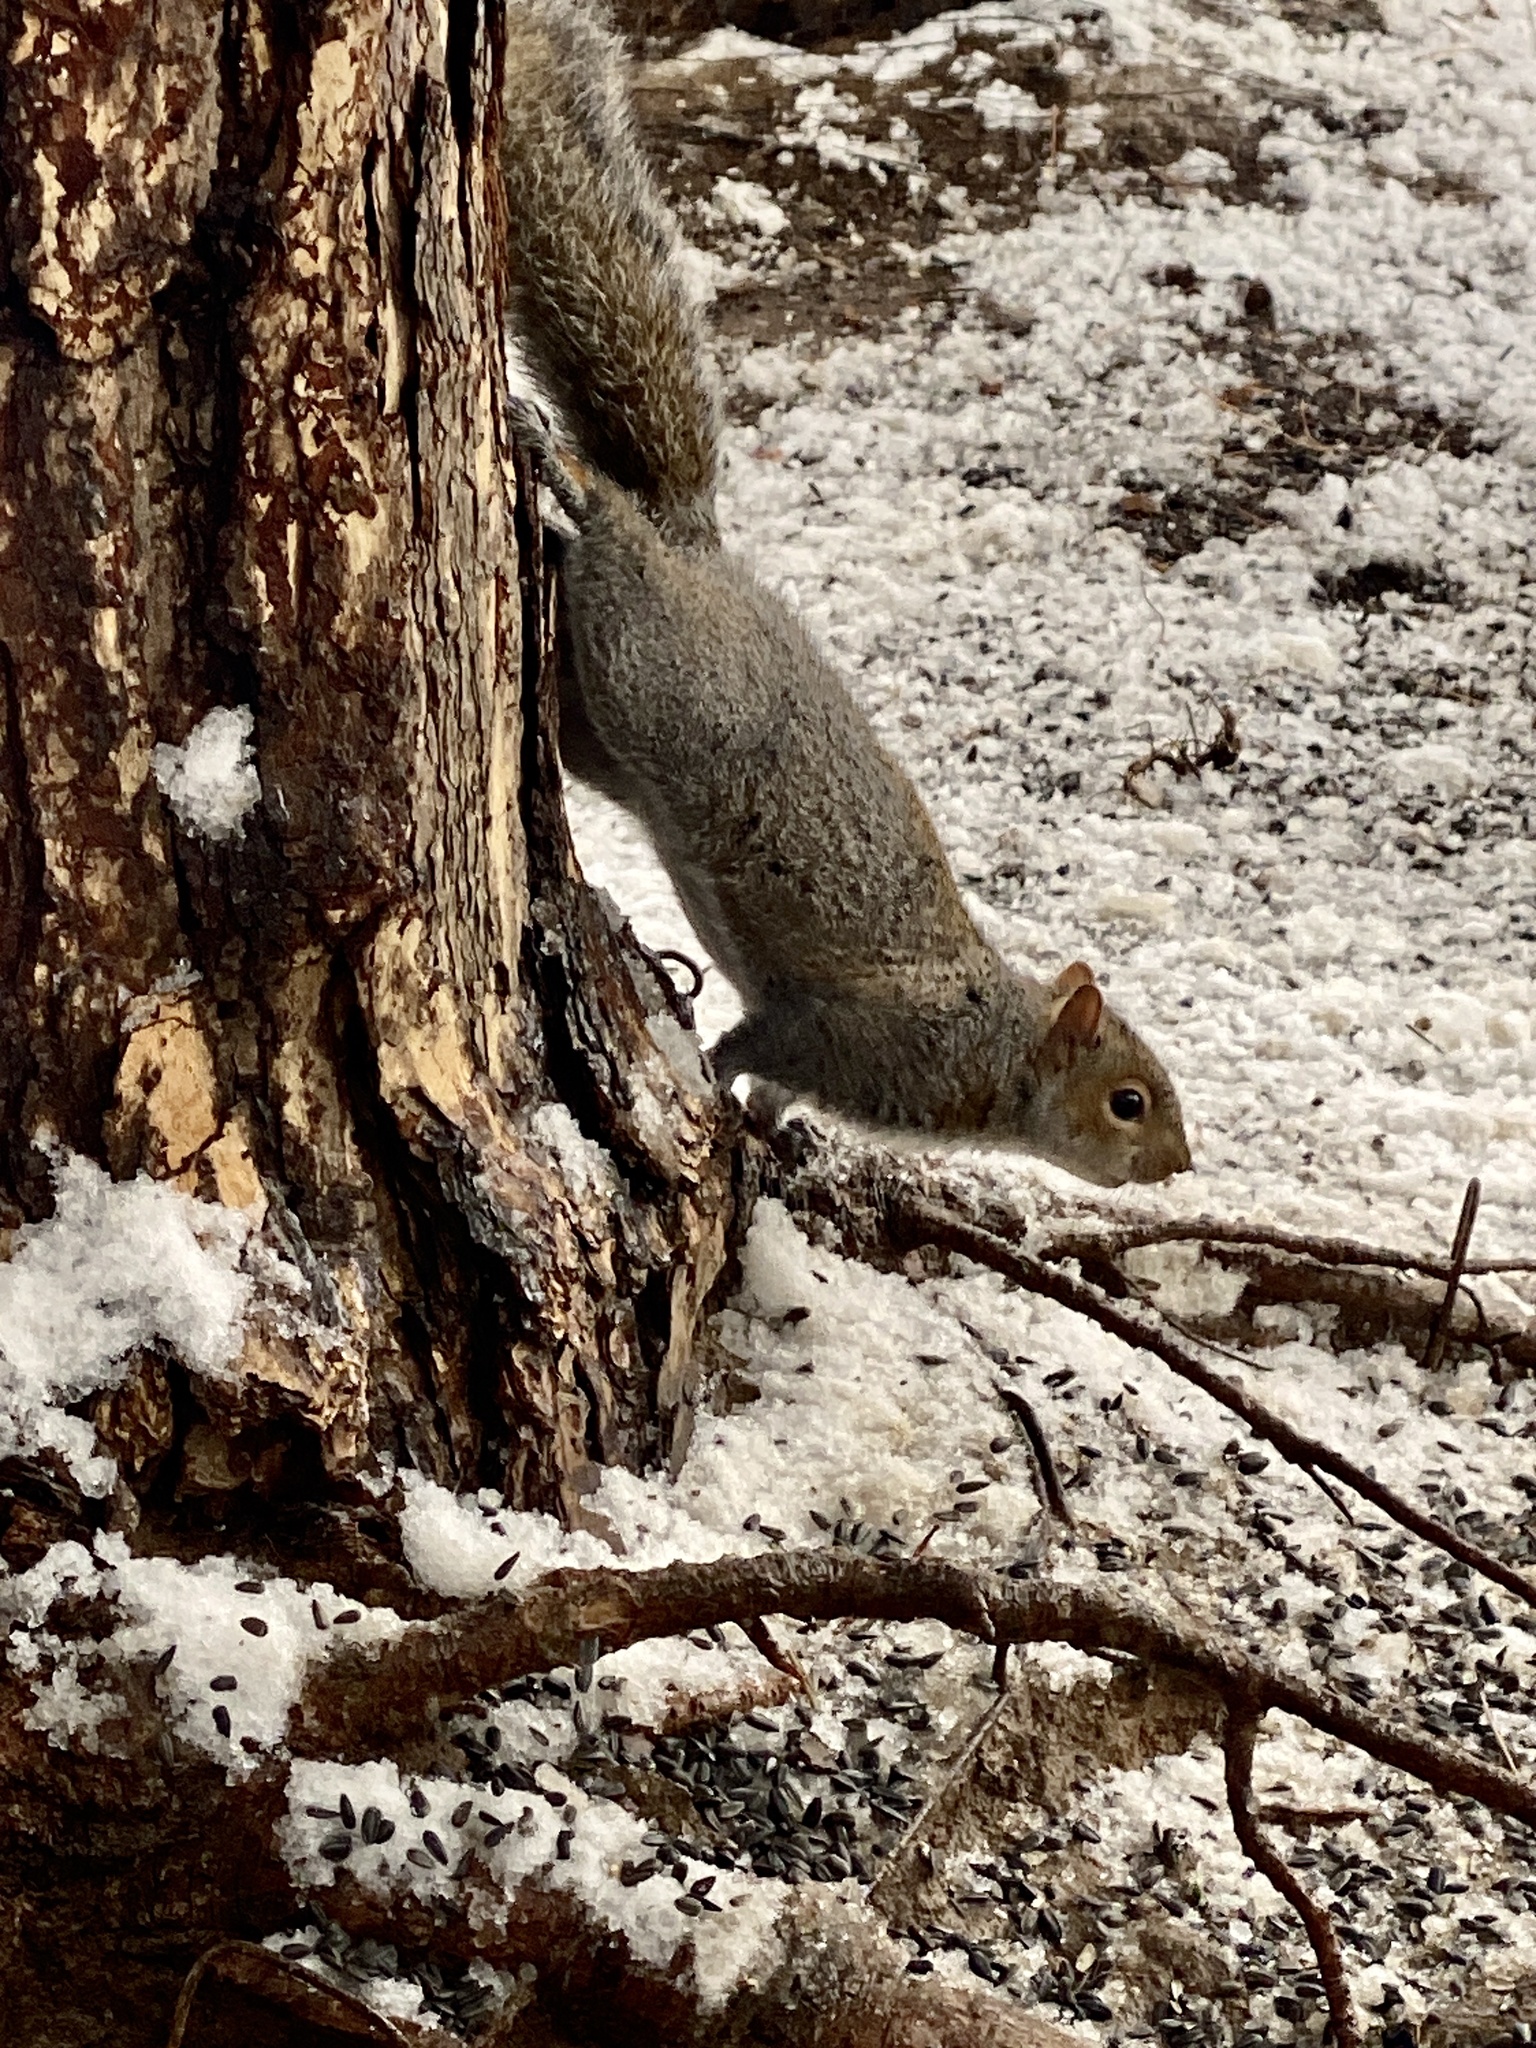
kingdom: Animalia
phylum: Chordata
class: Mammalia
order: Rodentia
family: Sciuridae
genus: Sciurus
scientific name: Sciurus carolinensis
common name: Eastern gray squirrel
